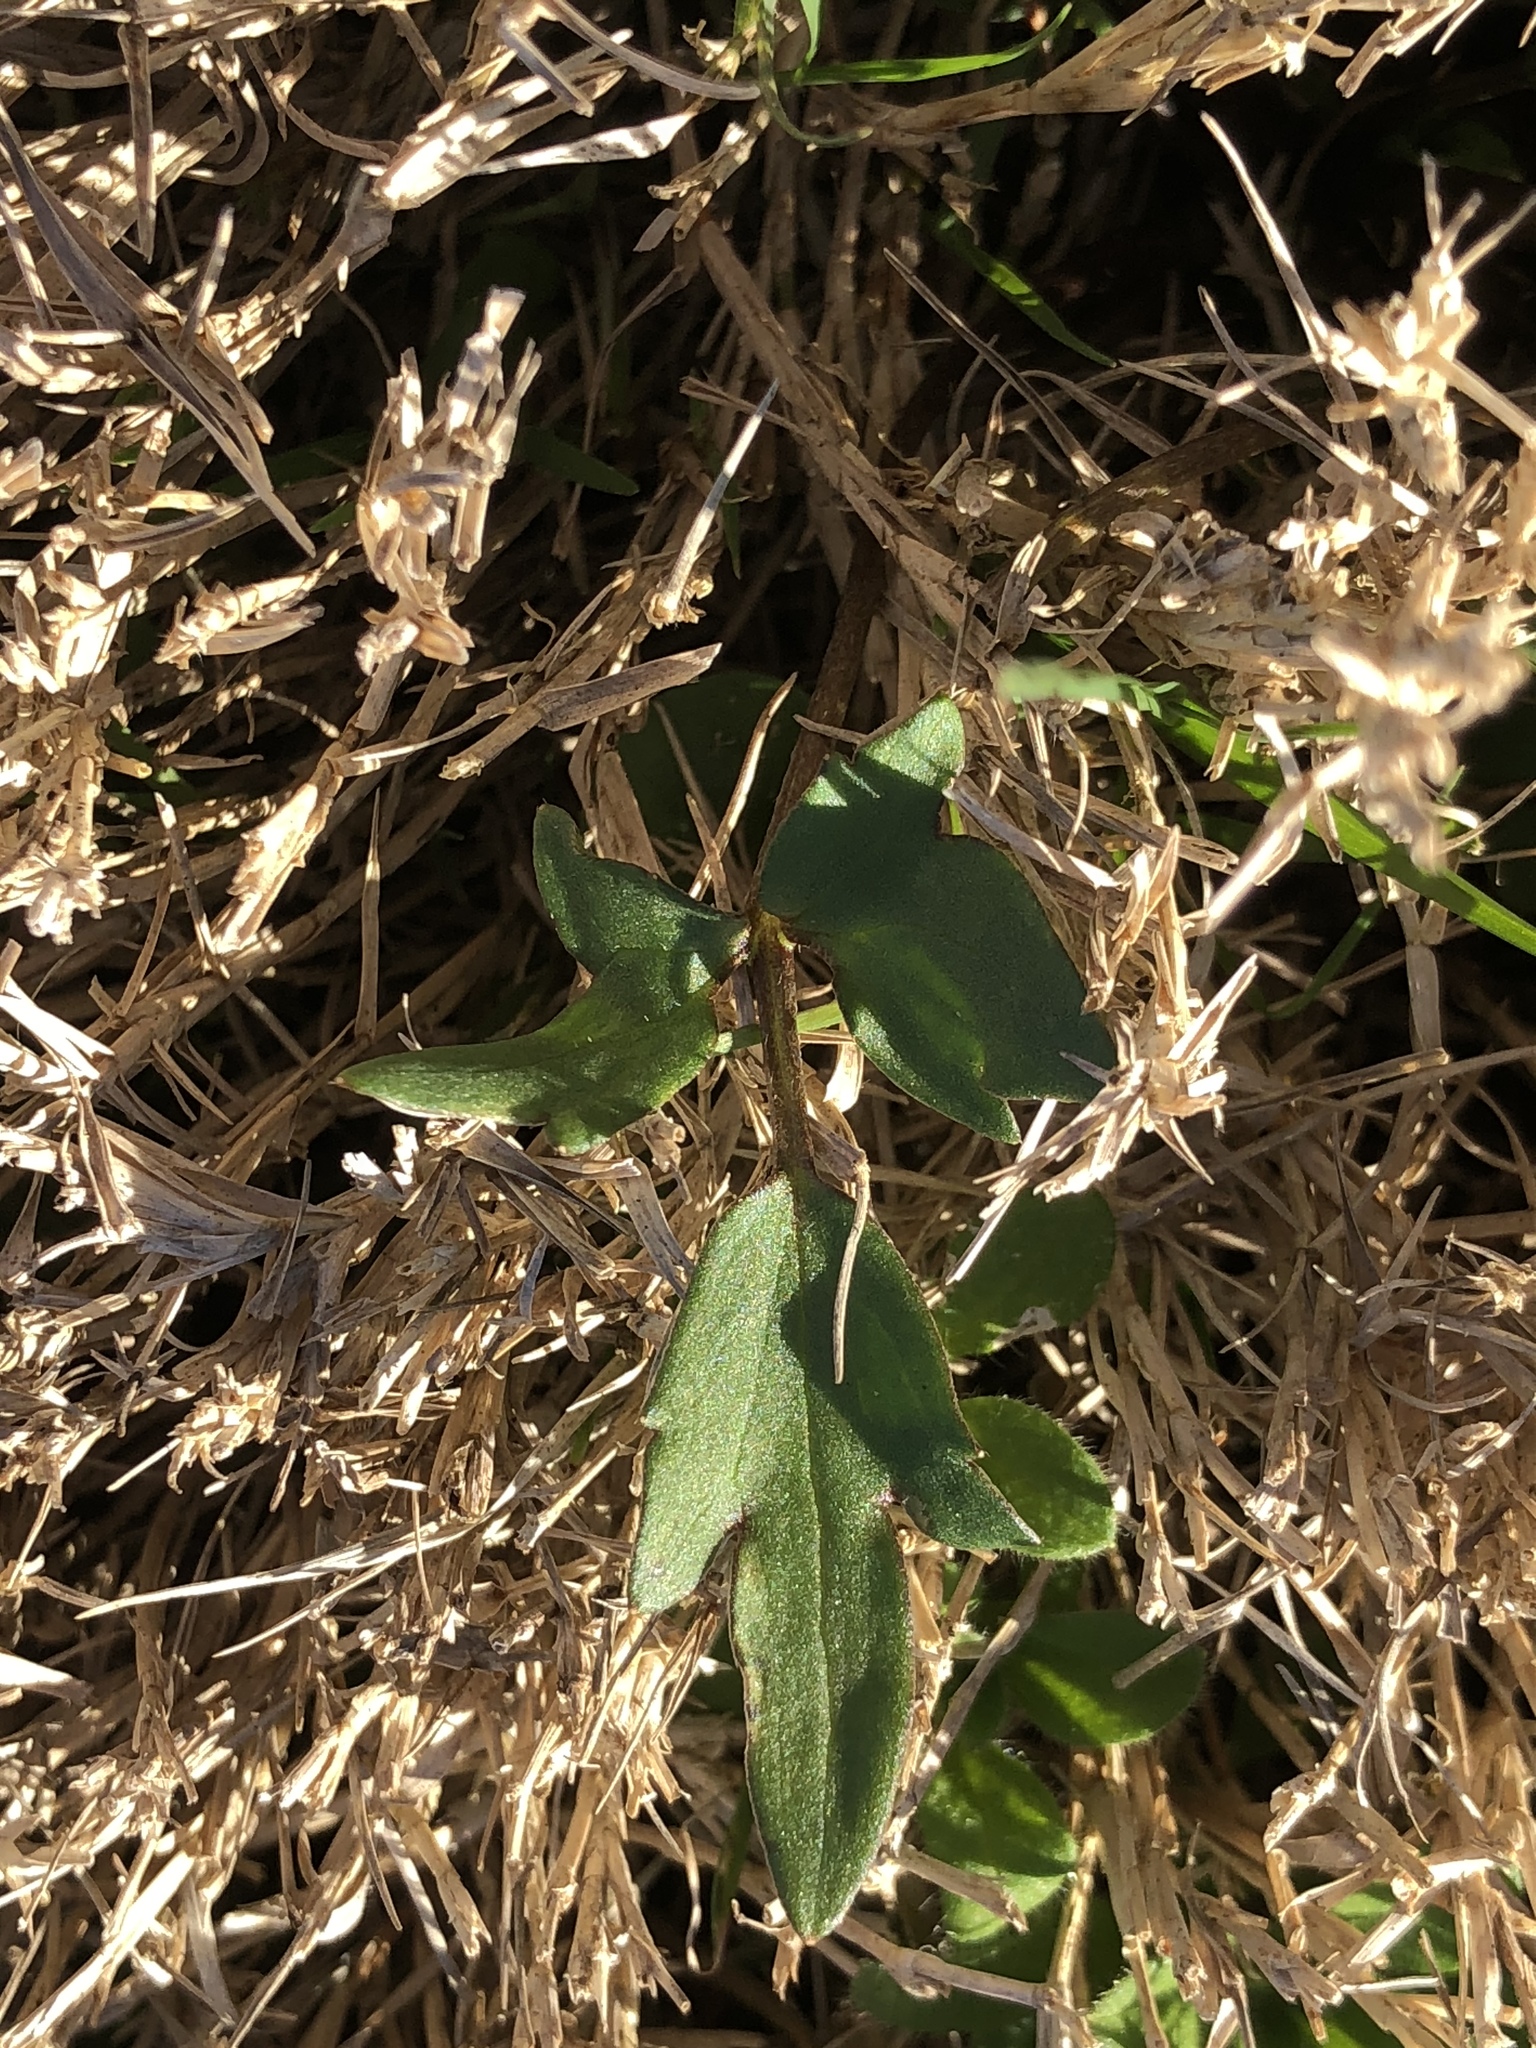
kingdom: Plantae
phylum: Tracheophyta
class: Magnoliopsida
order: Ranunculales
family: Ranunculaceae
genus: Ranunculus
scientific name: Ranunculus fascicularis
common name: Early buttercup
